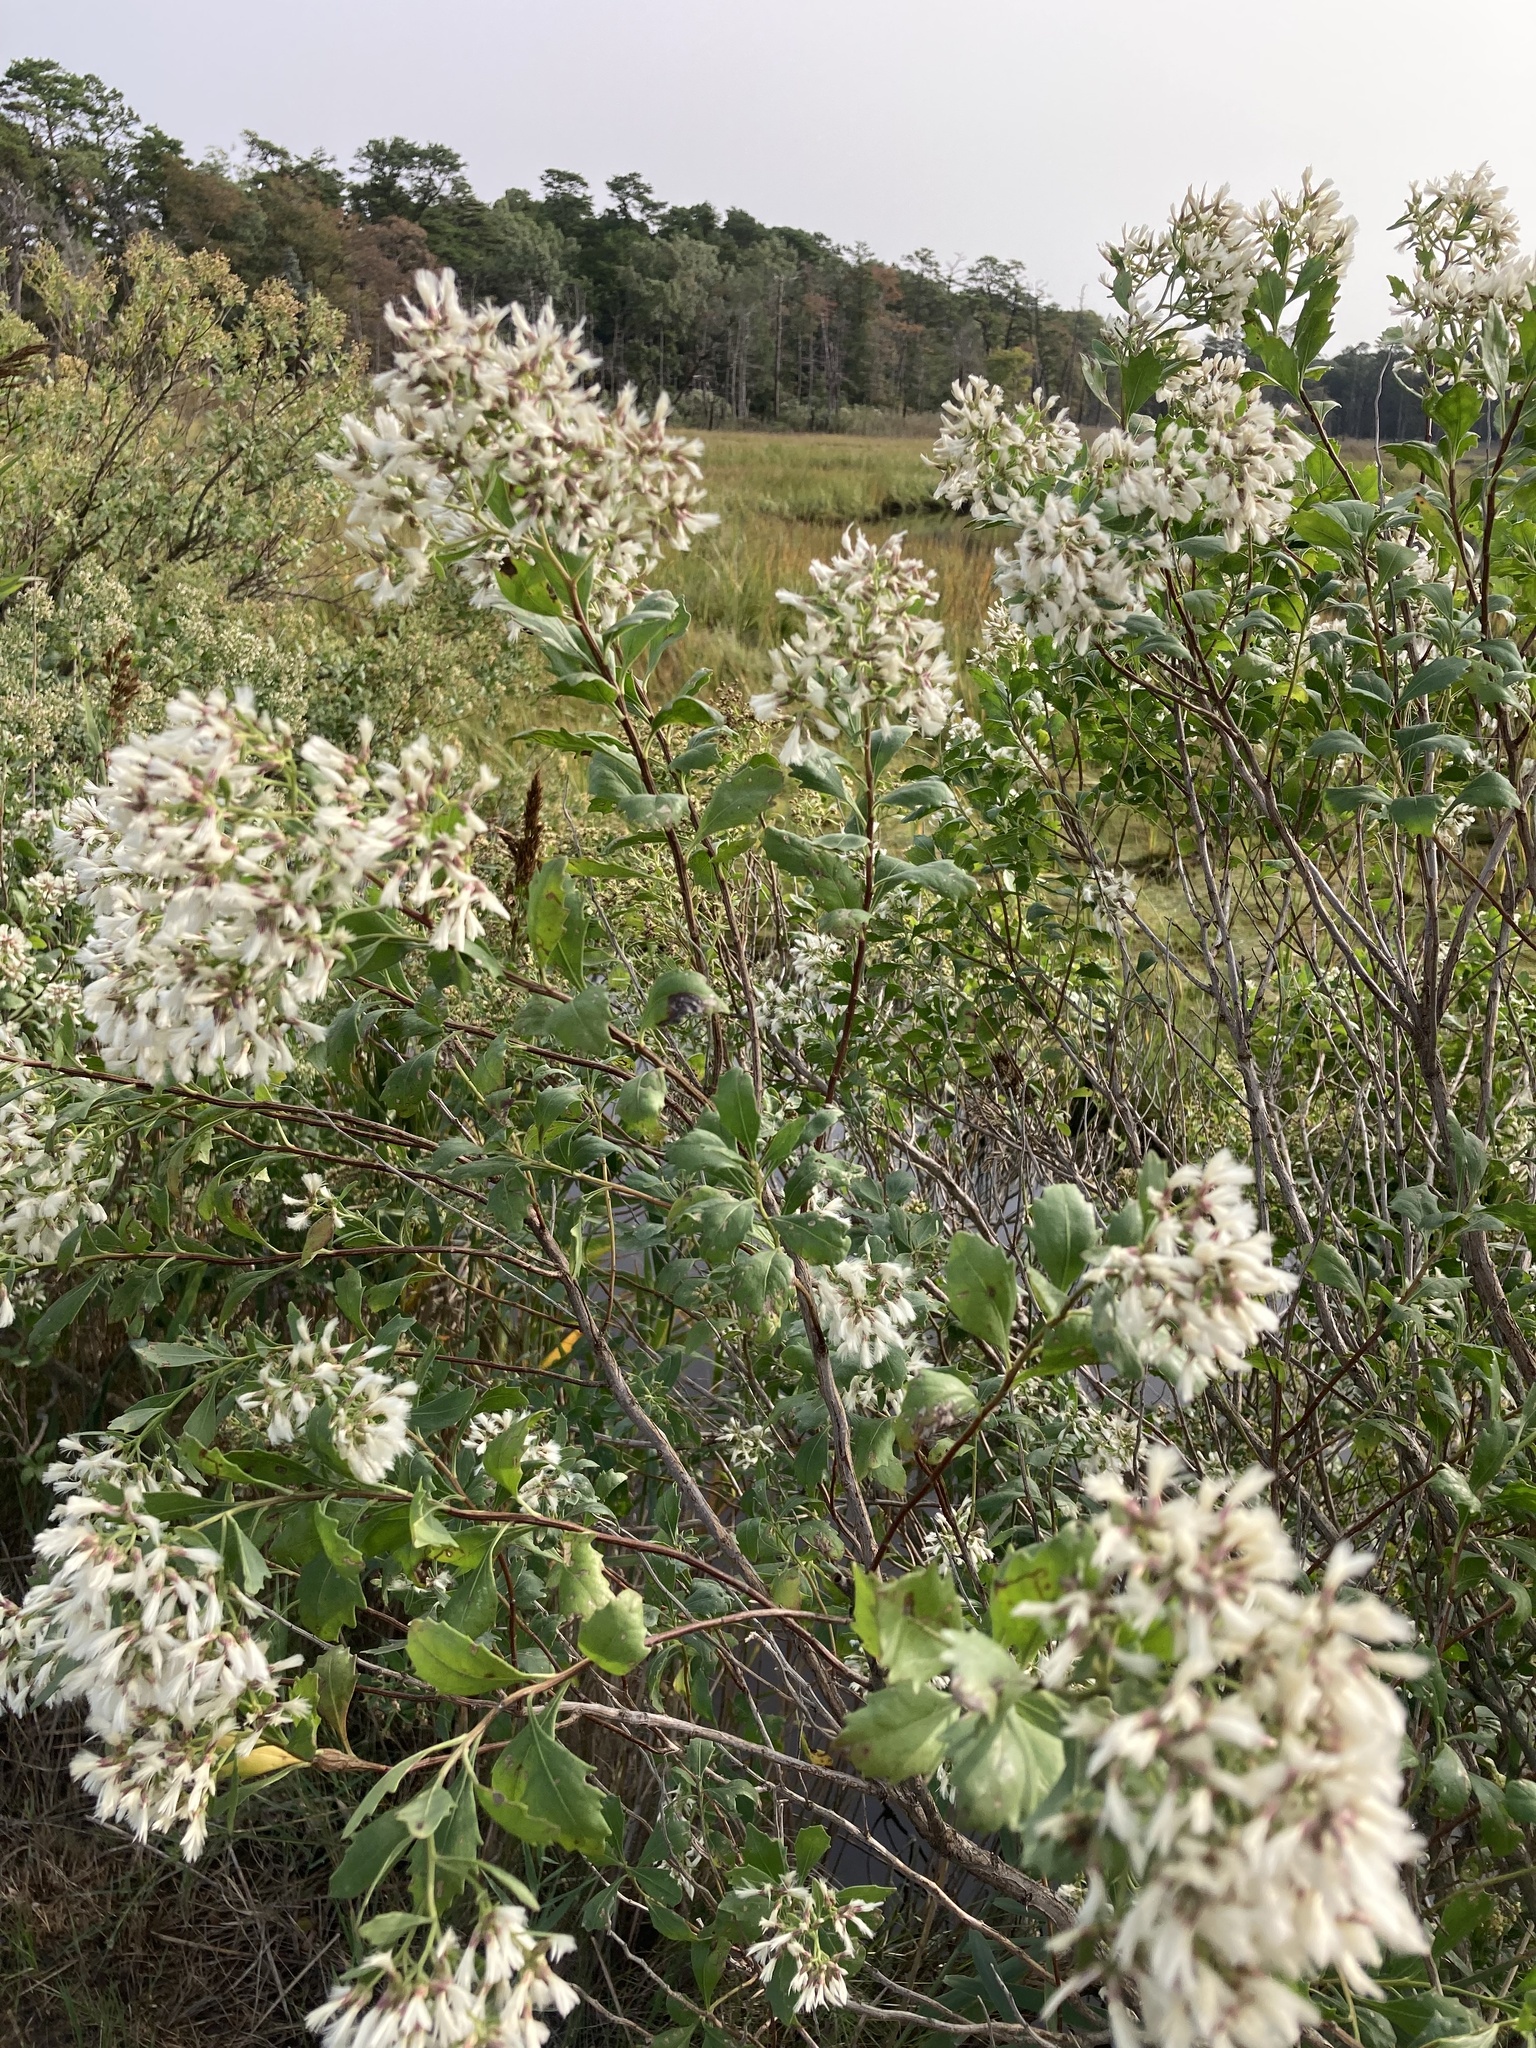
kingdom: Plantae
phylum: Tracheophyta
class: Magnoliopsida
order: Asterales
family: Asteraceae
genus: Baccharis
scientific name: Baccharis halimifolia
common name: Eastern baccharis
